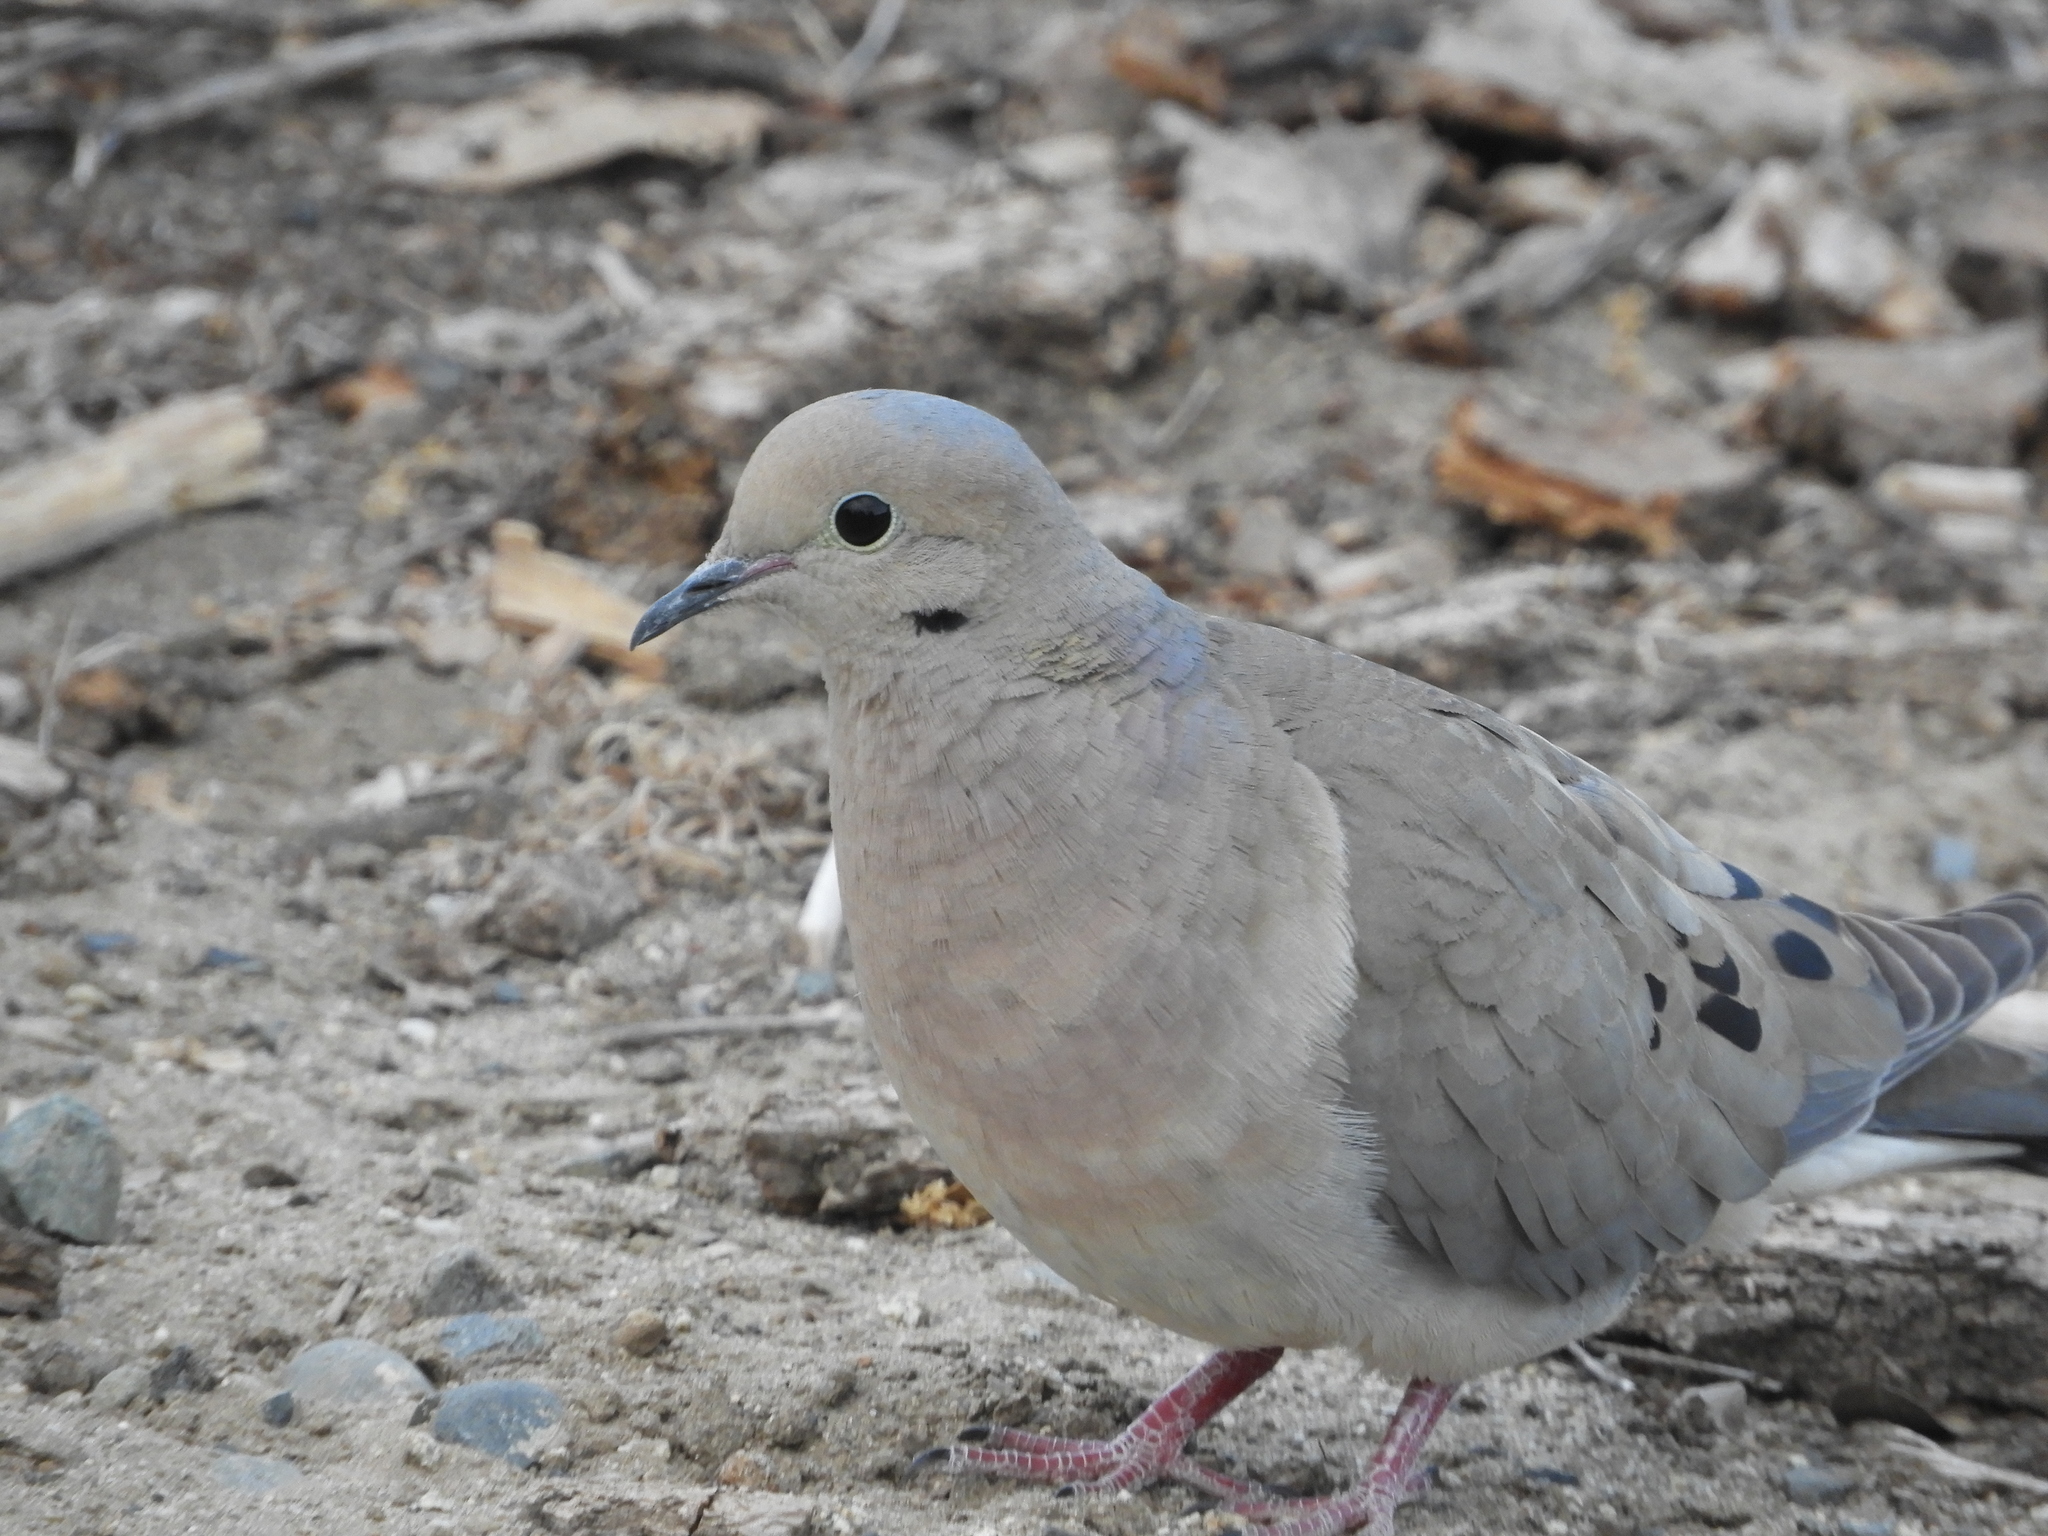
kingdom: Animalia
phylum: Chordata
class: Aves
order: Columbiformes
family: Columbidae
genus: Zenaida
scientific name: Zenaida macroura
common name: Mourning dove
